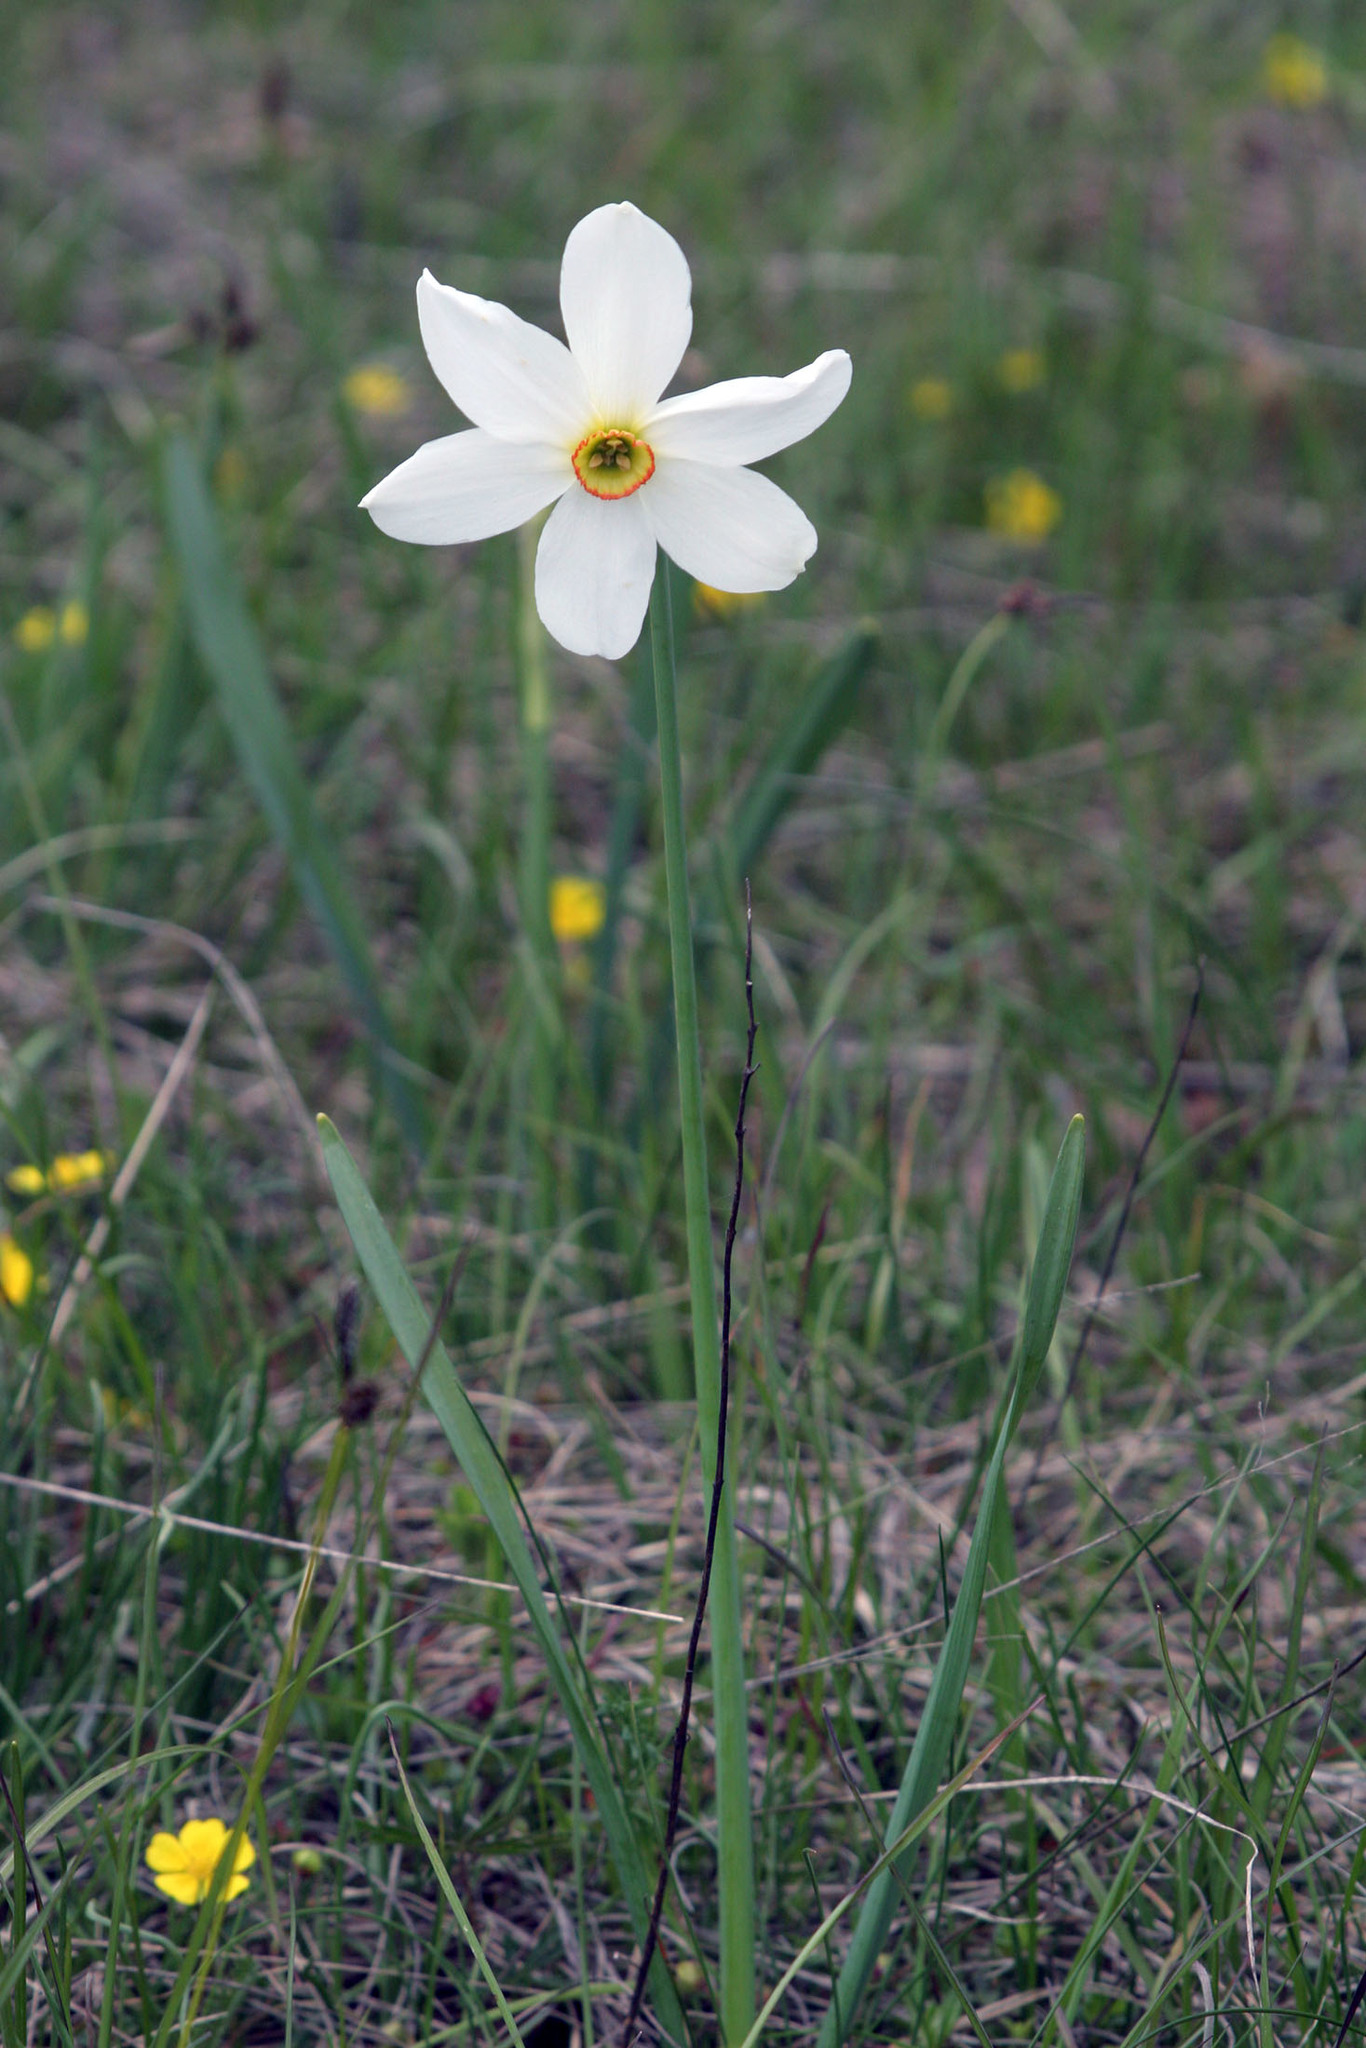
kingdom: Plantae
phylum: Tracheophyta
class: Liliopsida
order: Asparagales
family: Amaryllidaceae
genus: Narcissus
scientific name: Narcissus poeticus
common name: Pheasant's-eye daffodil
